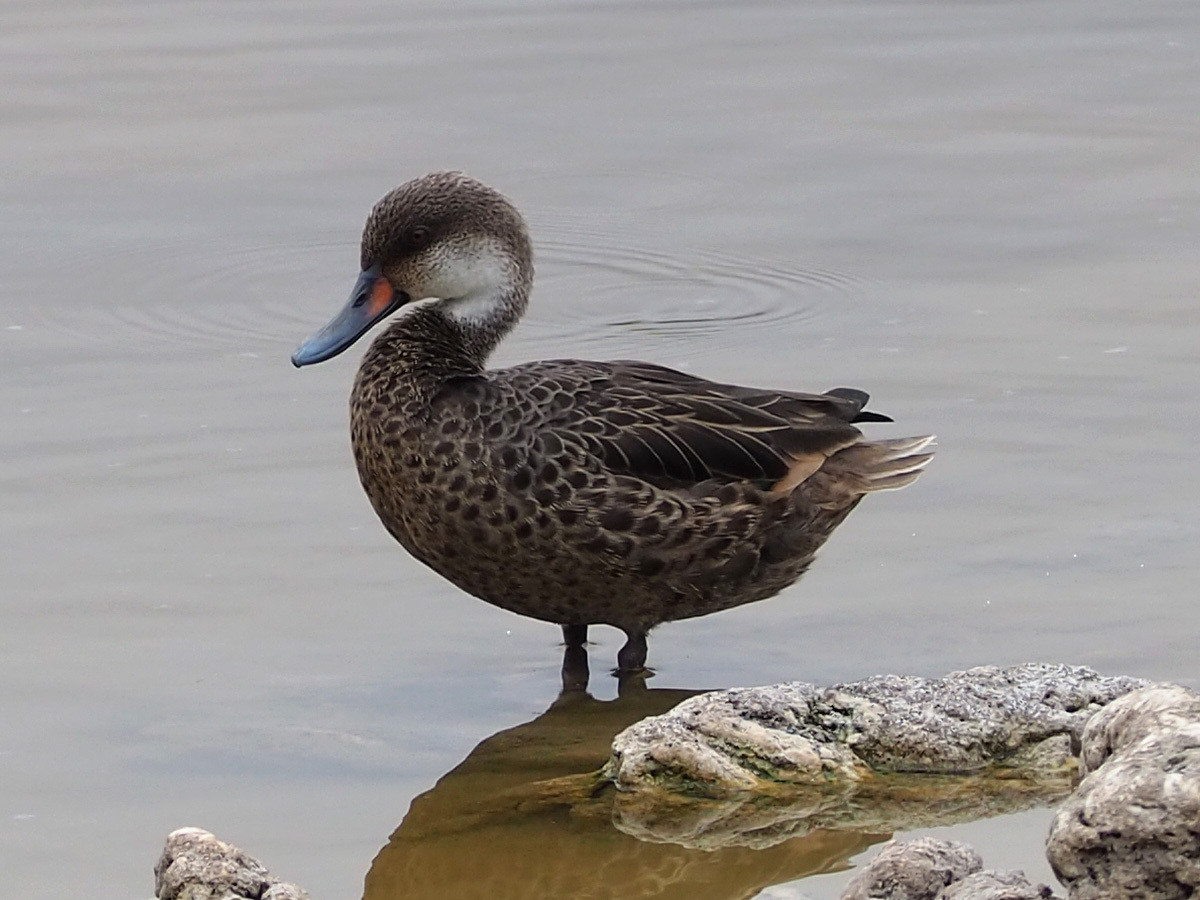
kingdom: Animalia
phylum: Chordata
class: Aves
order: Anseriformes
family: Anatidae
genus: Anas
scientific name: Anas bahamensis
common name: White-cheeked pintail
